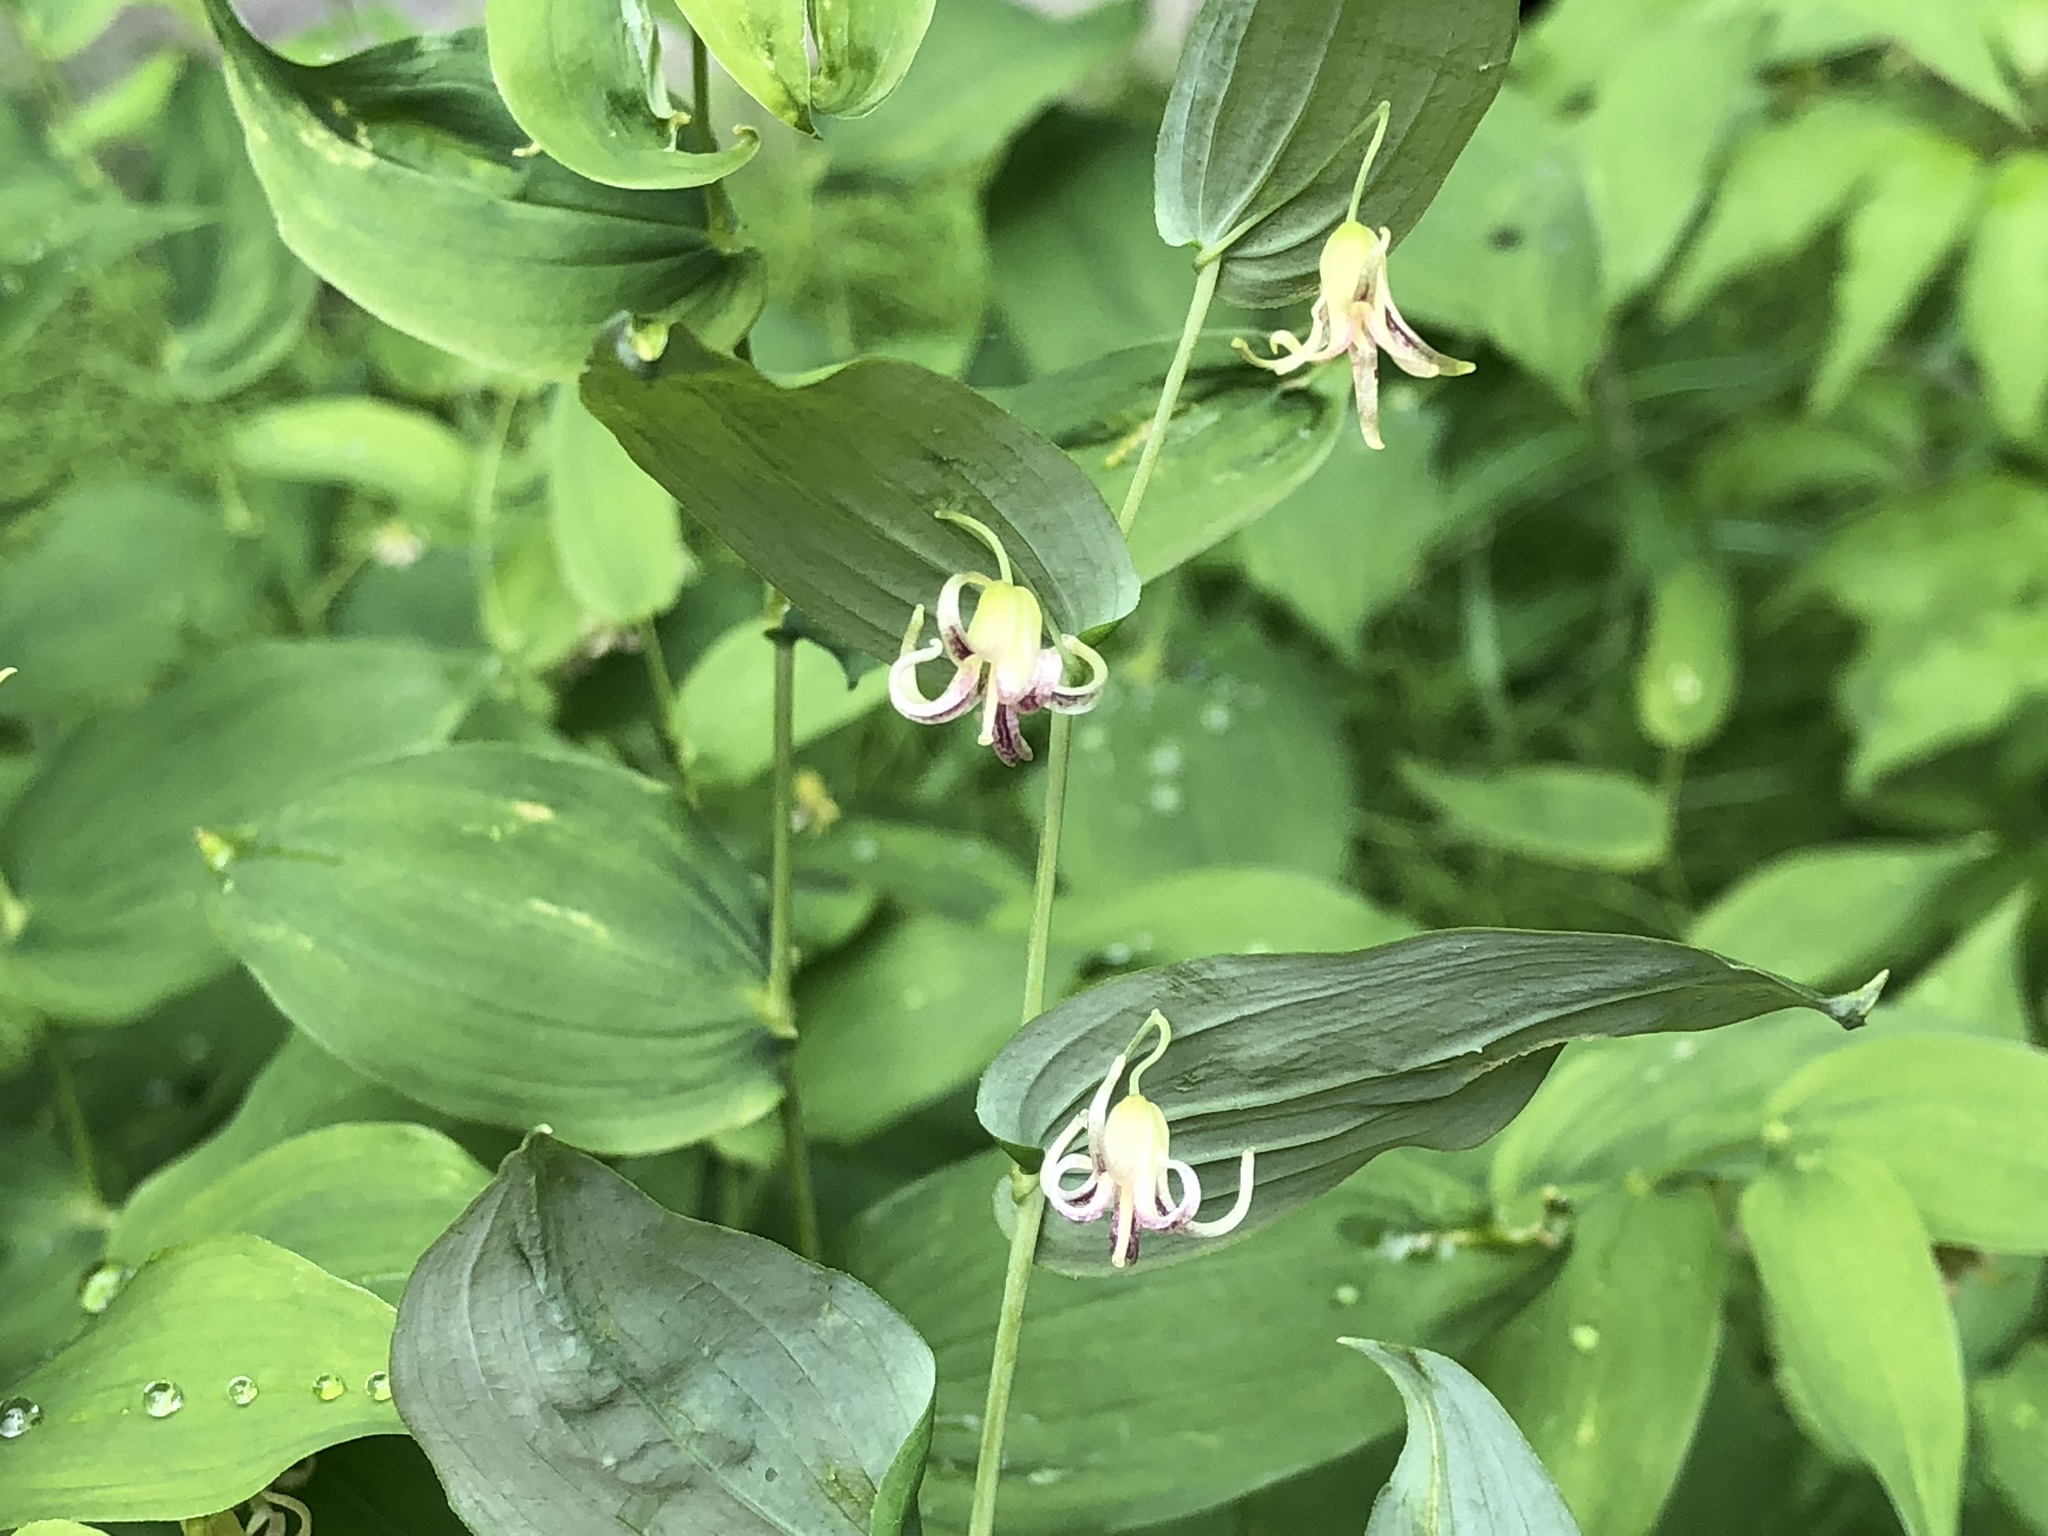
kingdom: Plantae
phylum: Tracheophyta
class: Liliopsida
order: Liliales
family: Liliaceae
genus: Streptopus
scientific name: Streptopus amplexifolius
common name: Clasp twisted stalk
